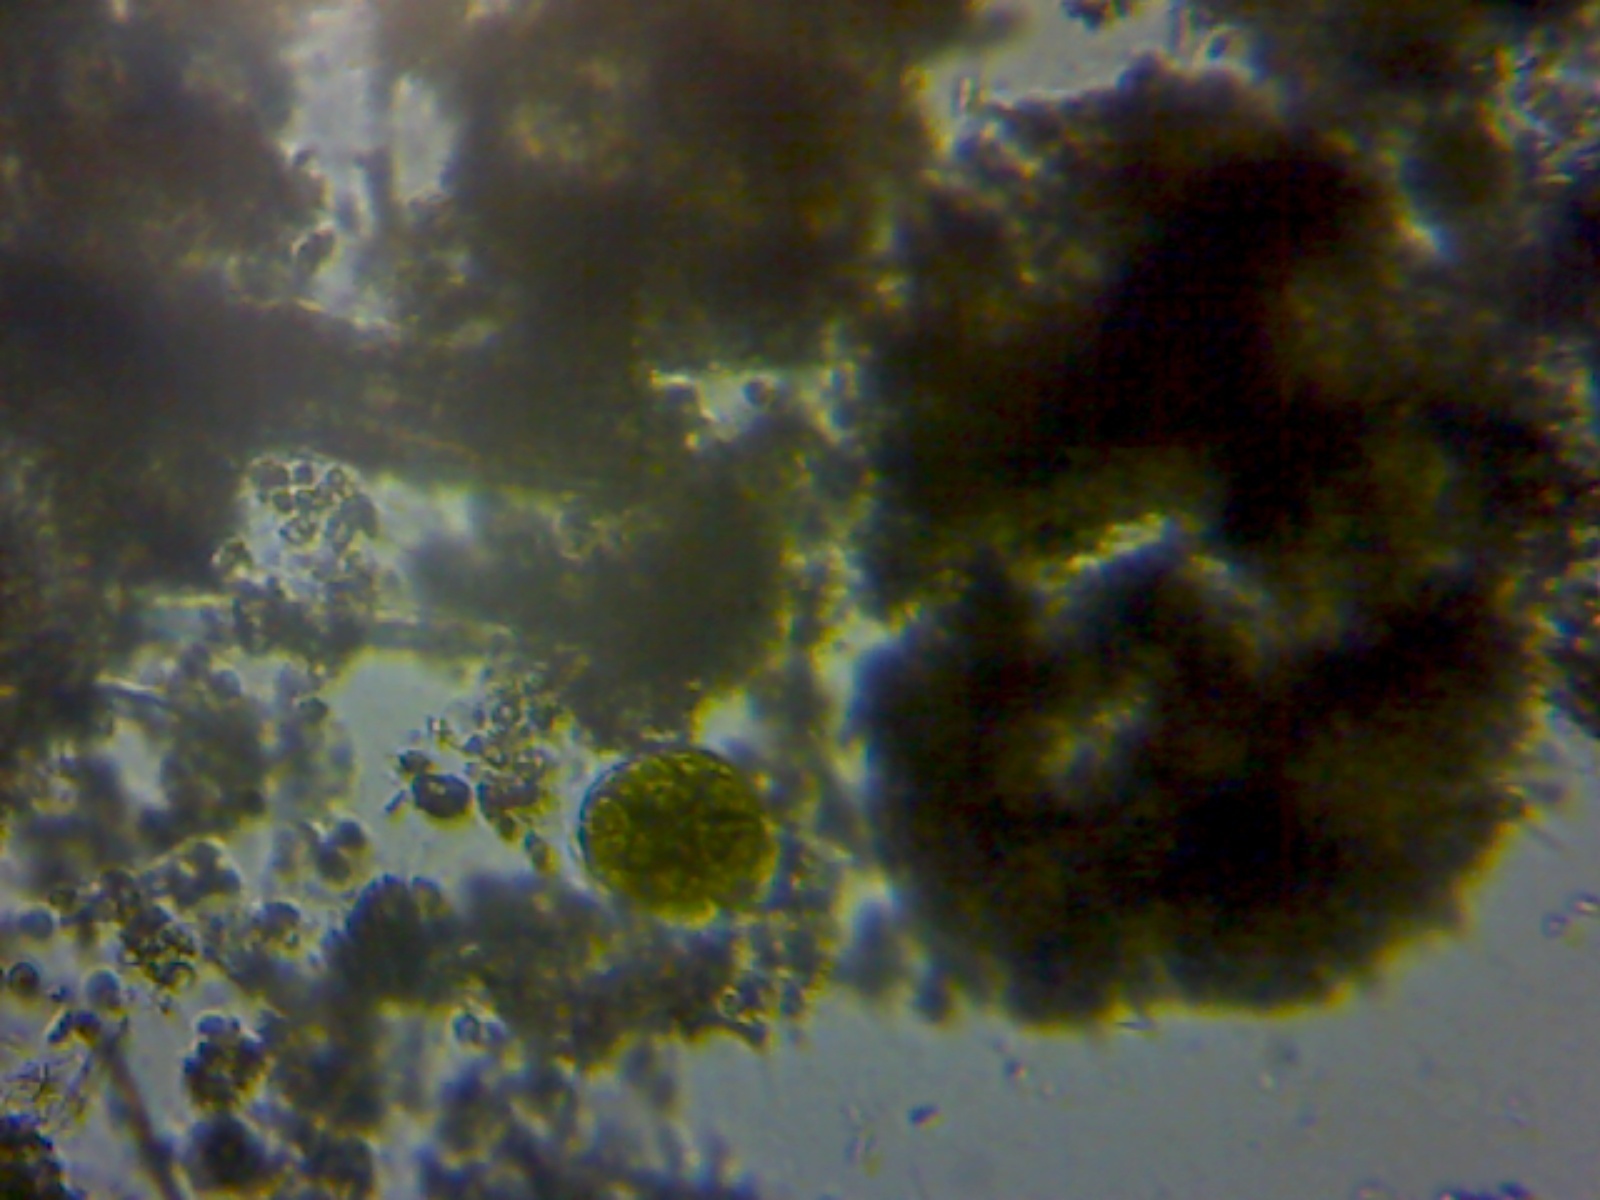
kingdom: Plantae
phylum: Chlorophyta
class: Chlorophyceae
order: Volvocales
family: Volvocaceae
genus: Pandorina
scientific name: Pandorina morum
